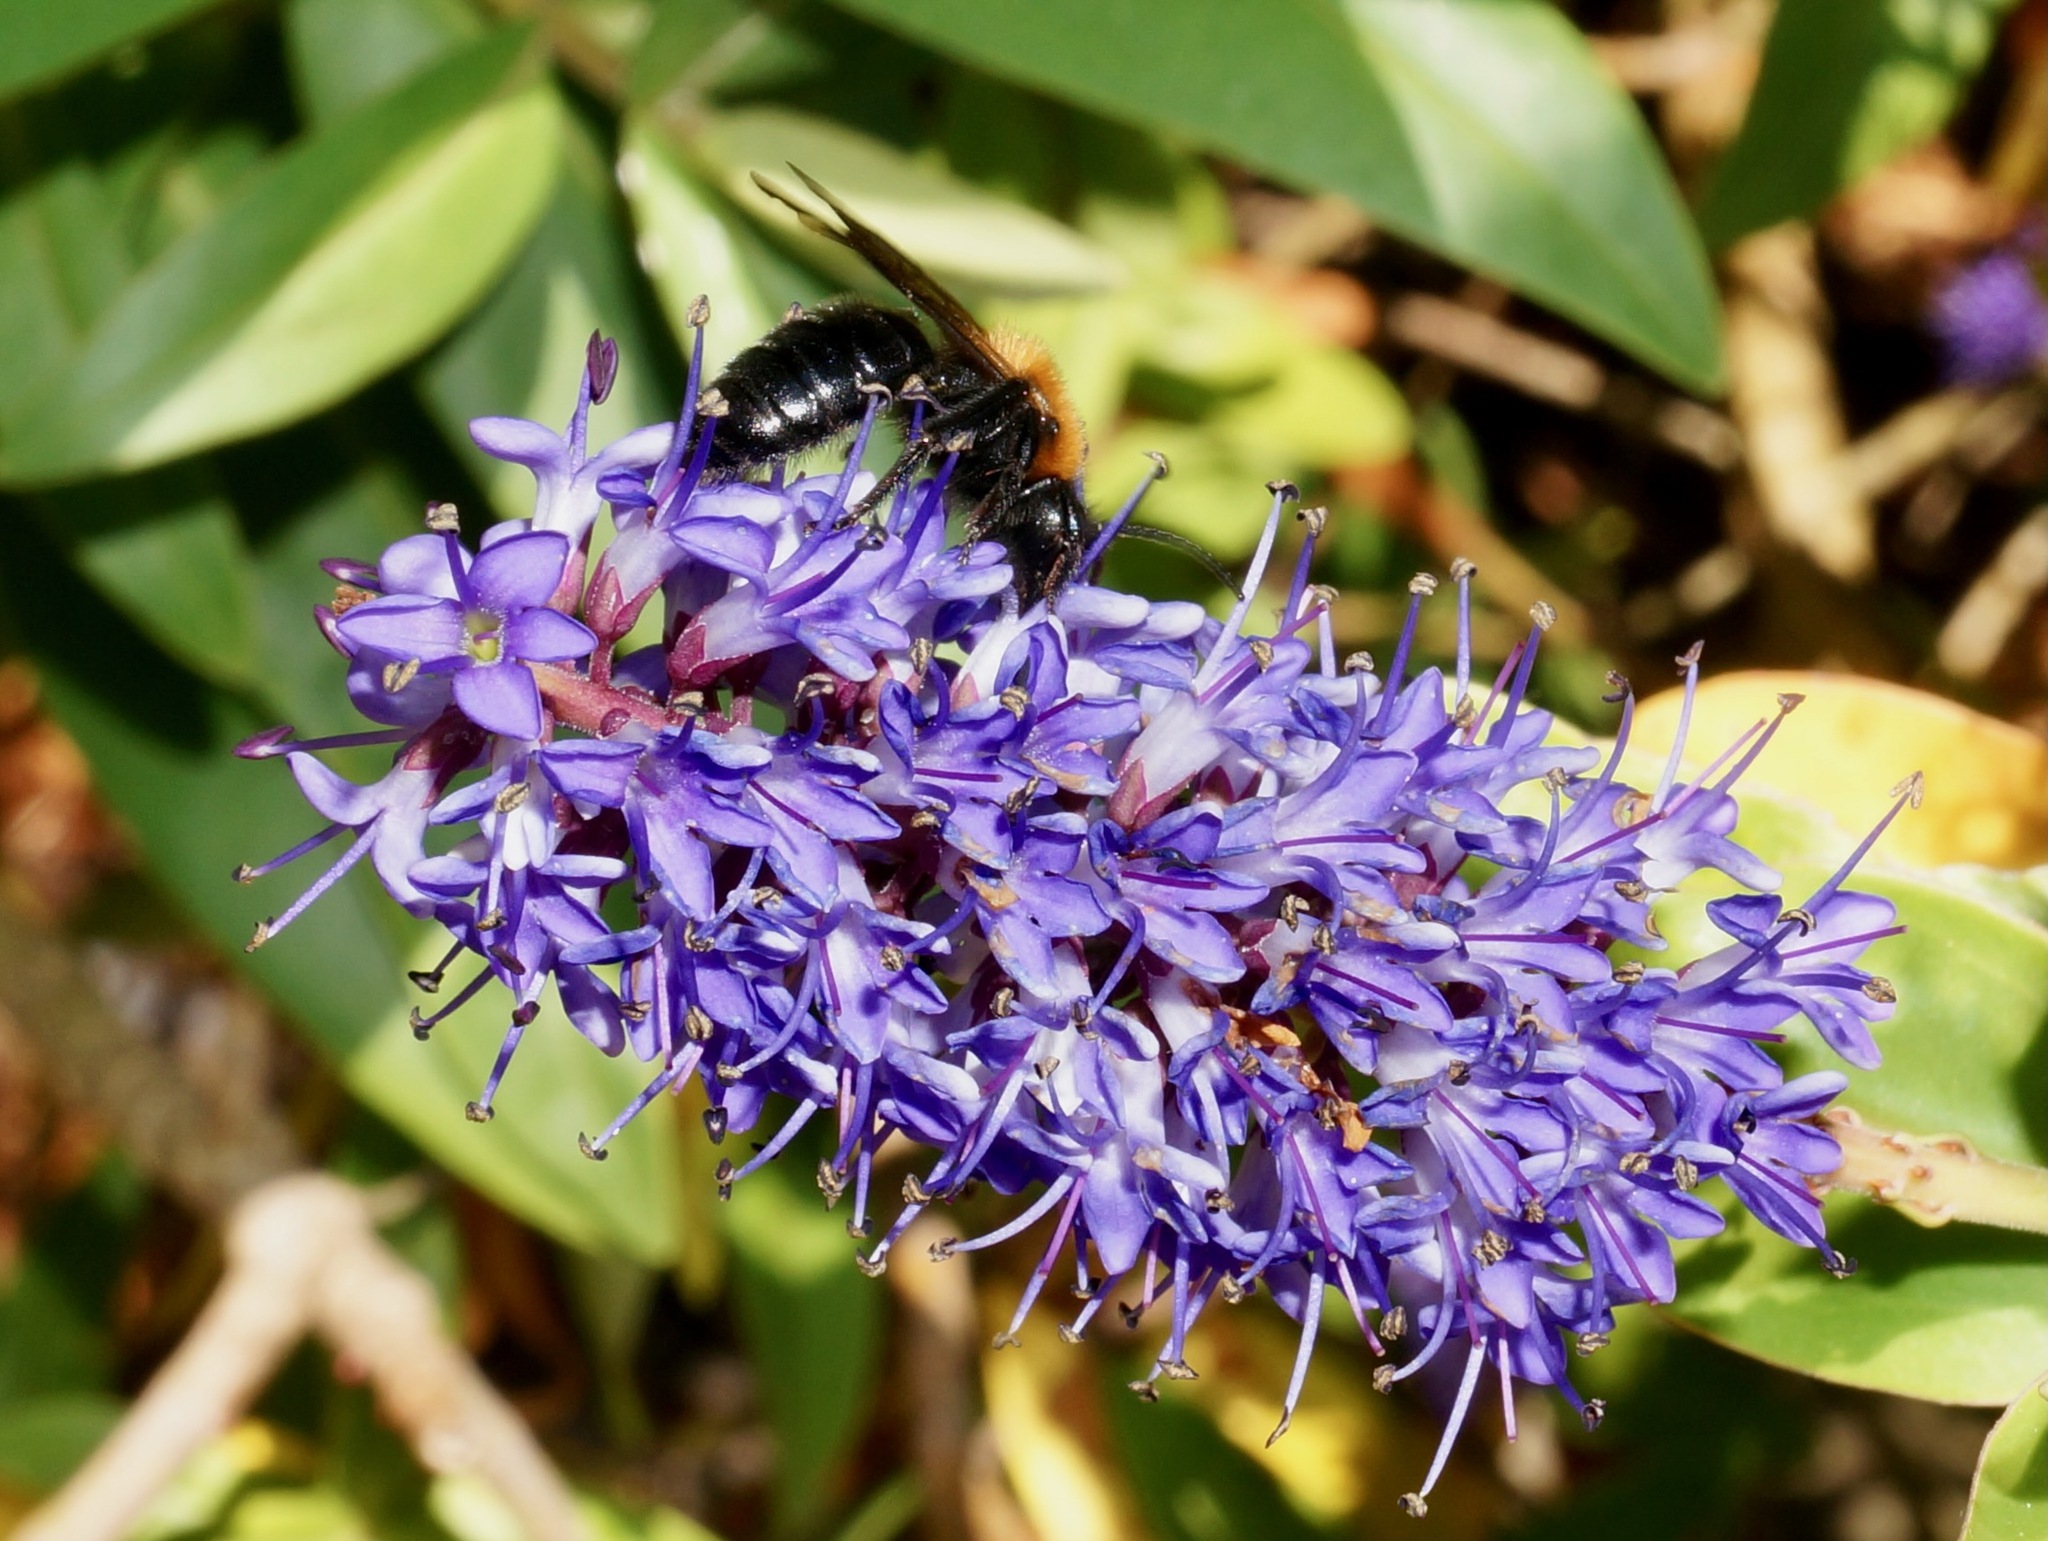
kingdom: Animalia
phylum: Arthropoda
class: Insecta
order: Hymenoptera
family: Andrenidae
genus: Andrena
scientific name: Andrena thoracica
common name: Cliff mining bee
